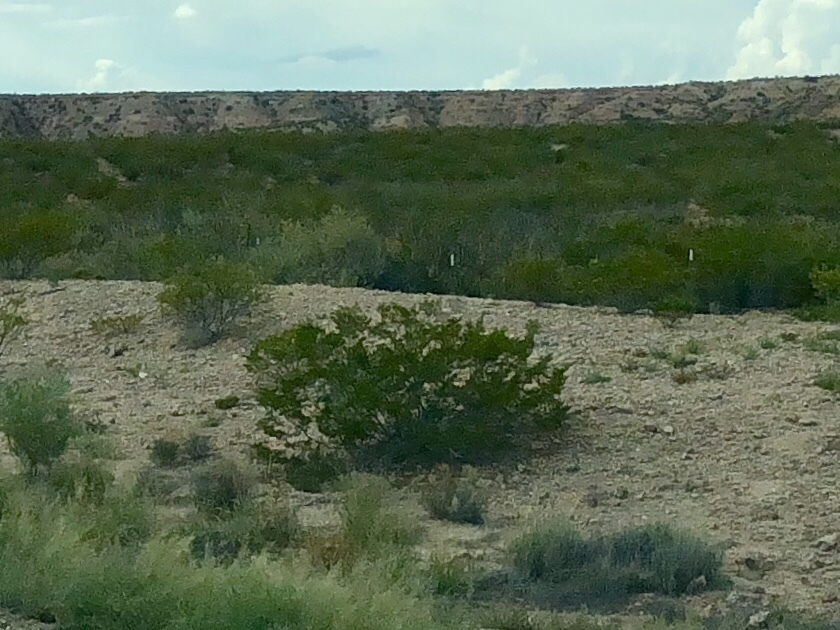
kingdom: Plantae
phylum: Tracheophyta
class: Magnoliopsida
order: Zygophyllales
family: Zygophyllaceae
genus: Larrea
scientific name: Larrea tridentata
